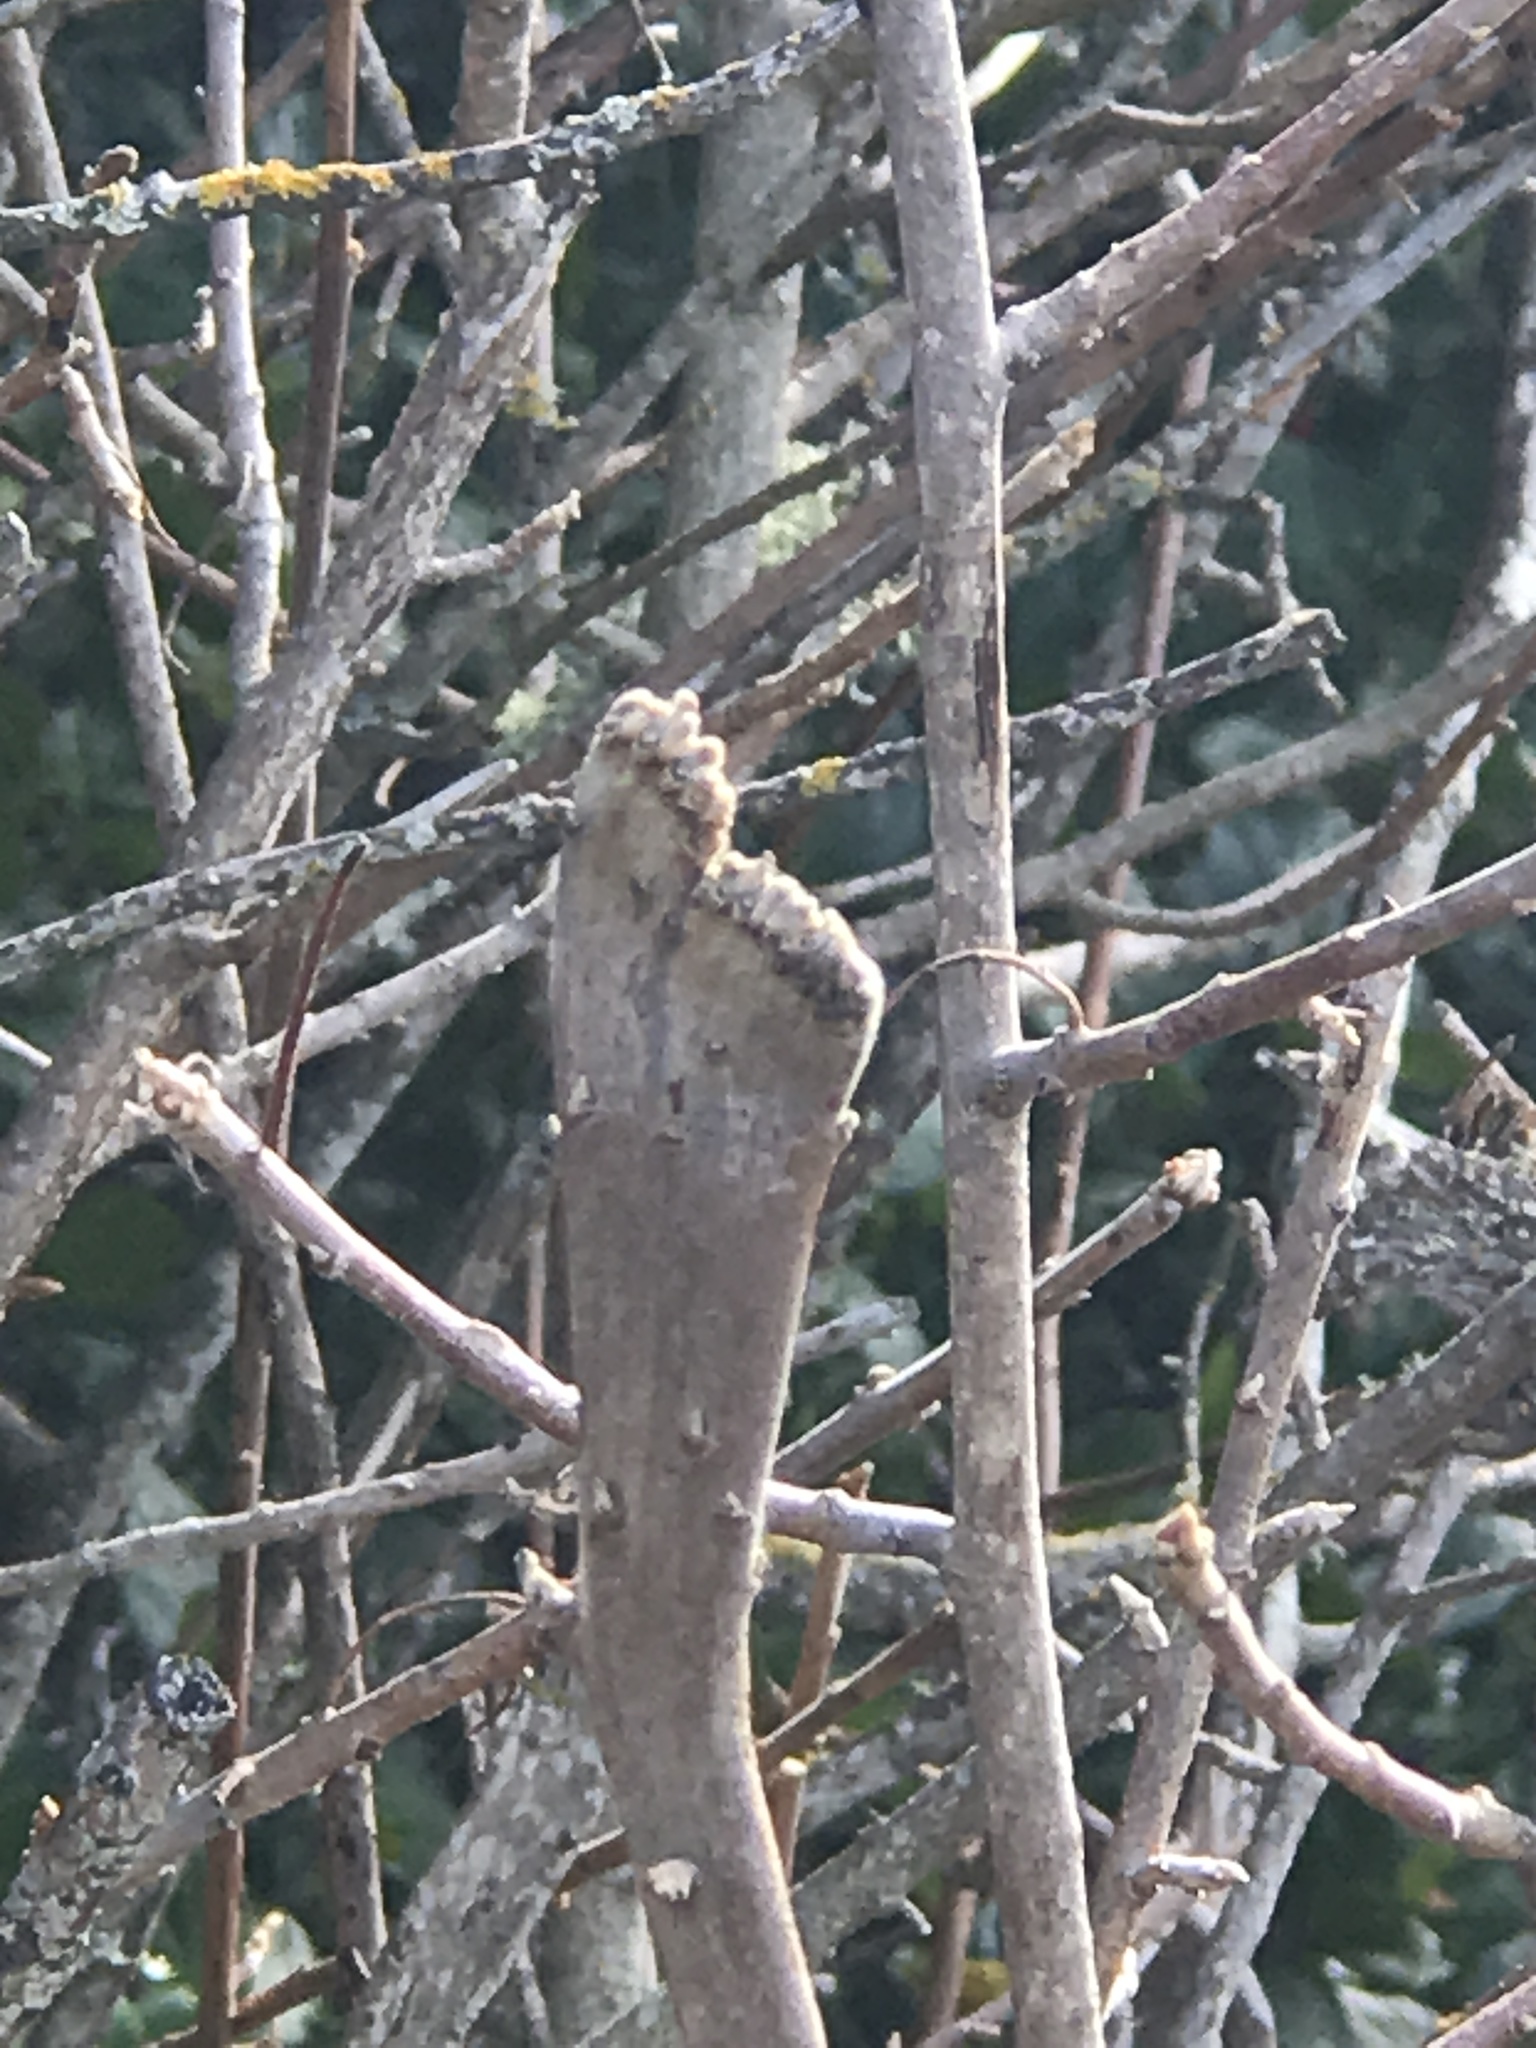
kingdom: Plantae
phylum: Tracheophyta
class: Magnoliopsida
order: Sapindales
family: Anacardiaceae
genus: Toxicodendron
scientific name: Toxicodendron diversilobum
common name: Pacific poison-oak
